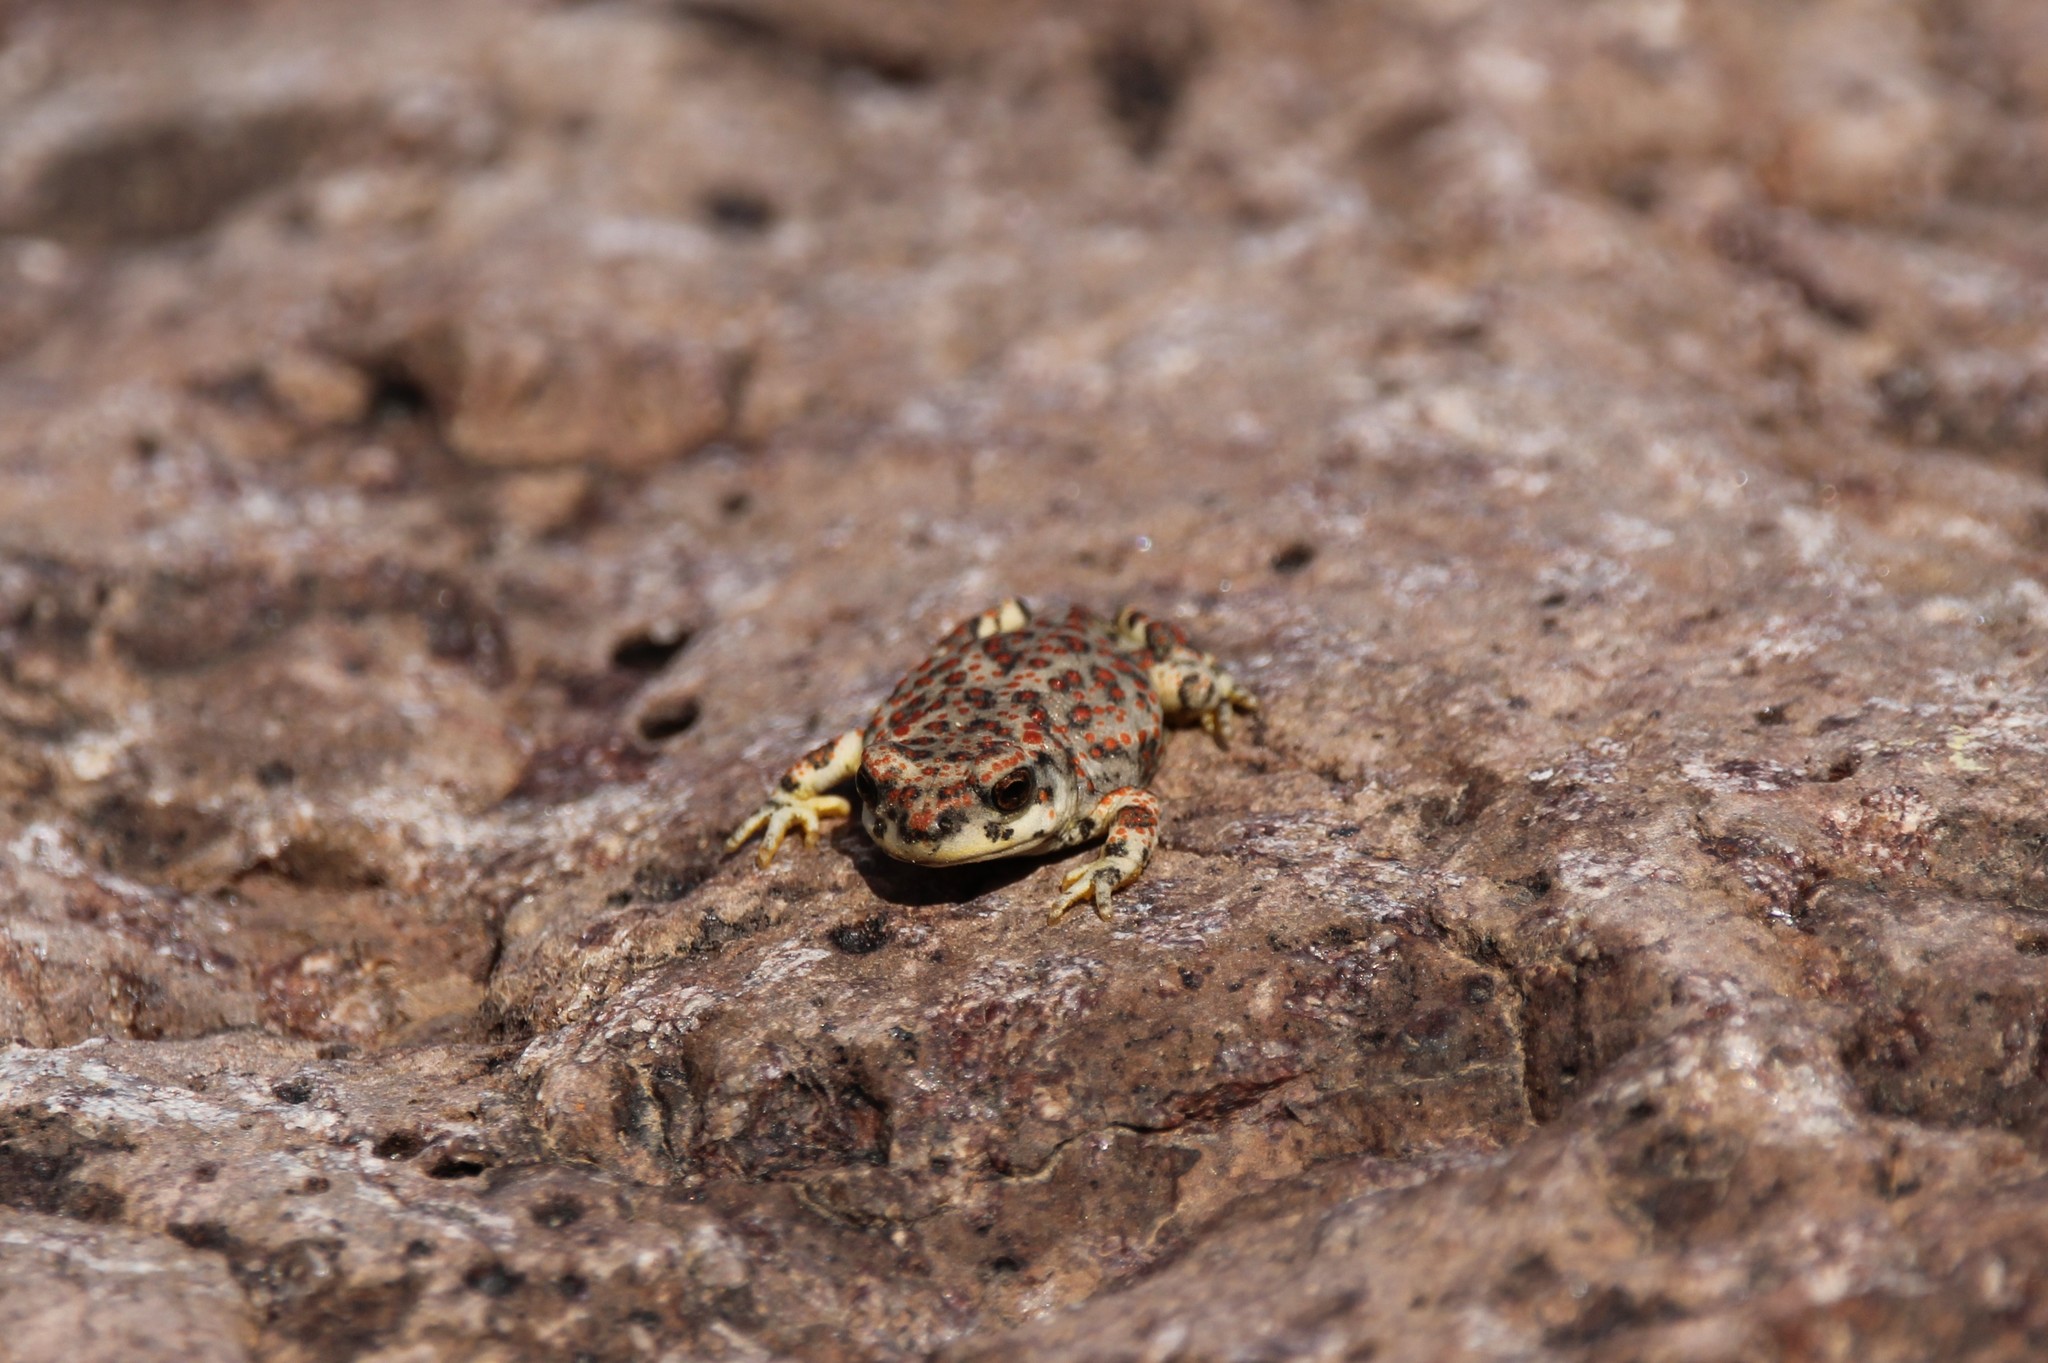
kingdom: Animalia
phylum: Chordata
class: Amphibia
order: Anura
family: Bufonidae
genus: Anaxyrus
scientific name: Anaxyrus punctatus
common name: Red-spotted toad
